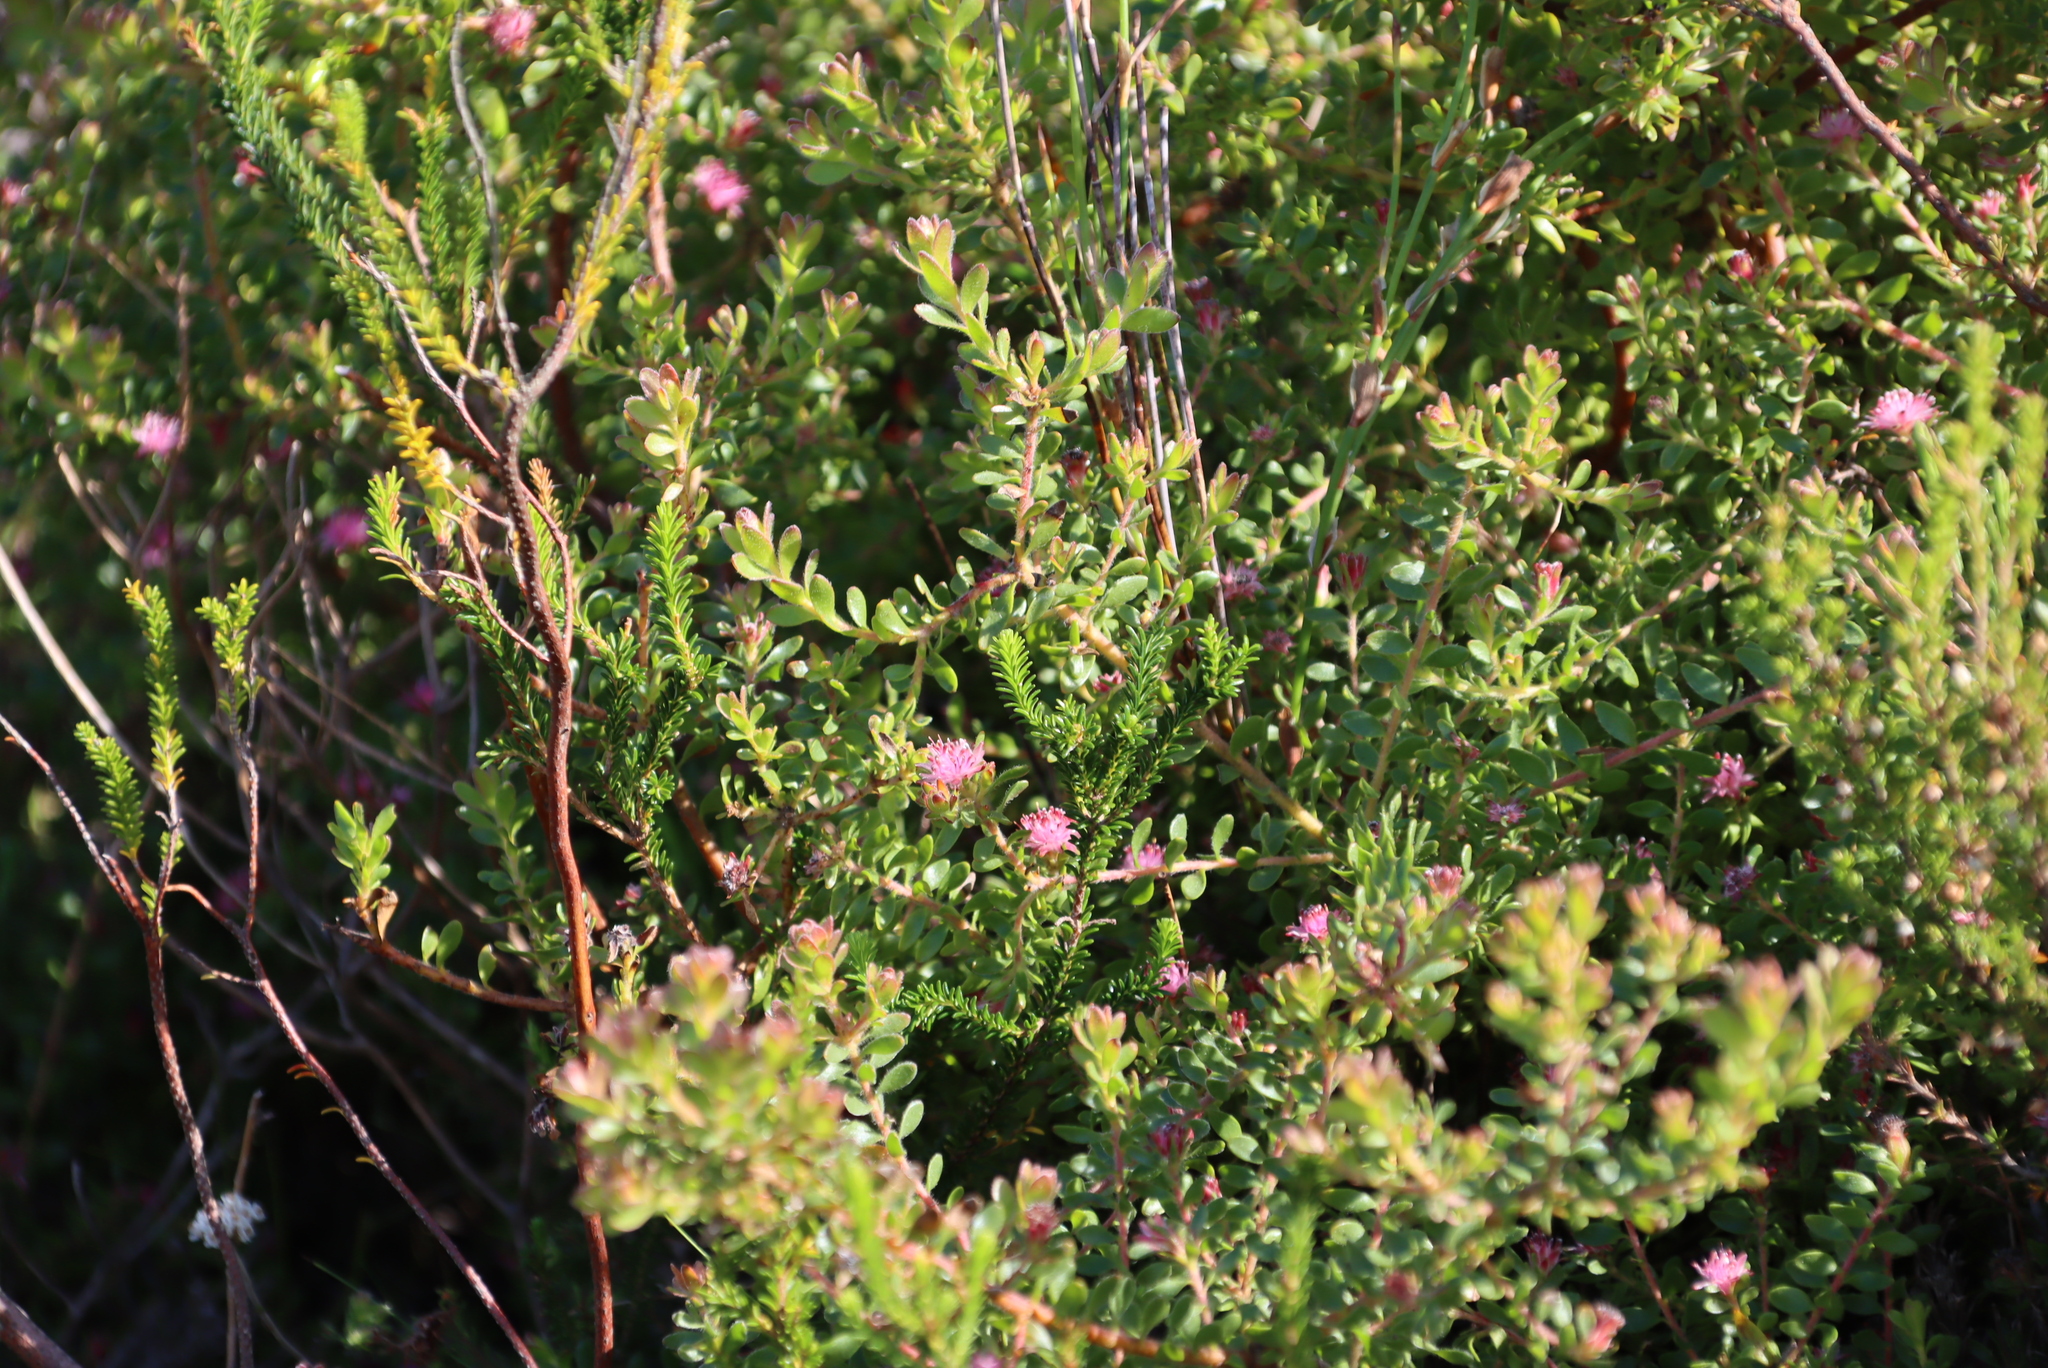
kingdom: Plantae
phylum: Tracheophyta
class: Magnoliopsida
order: Proteales
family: Proteaceae
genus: Diastella
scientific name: Diastella divaricata
